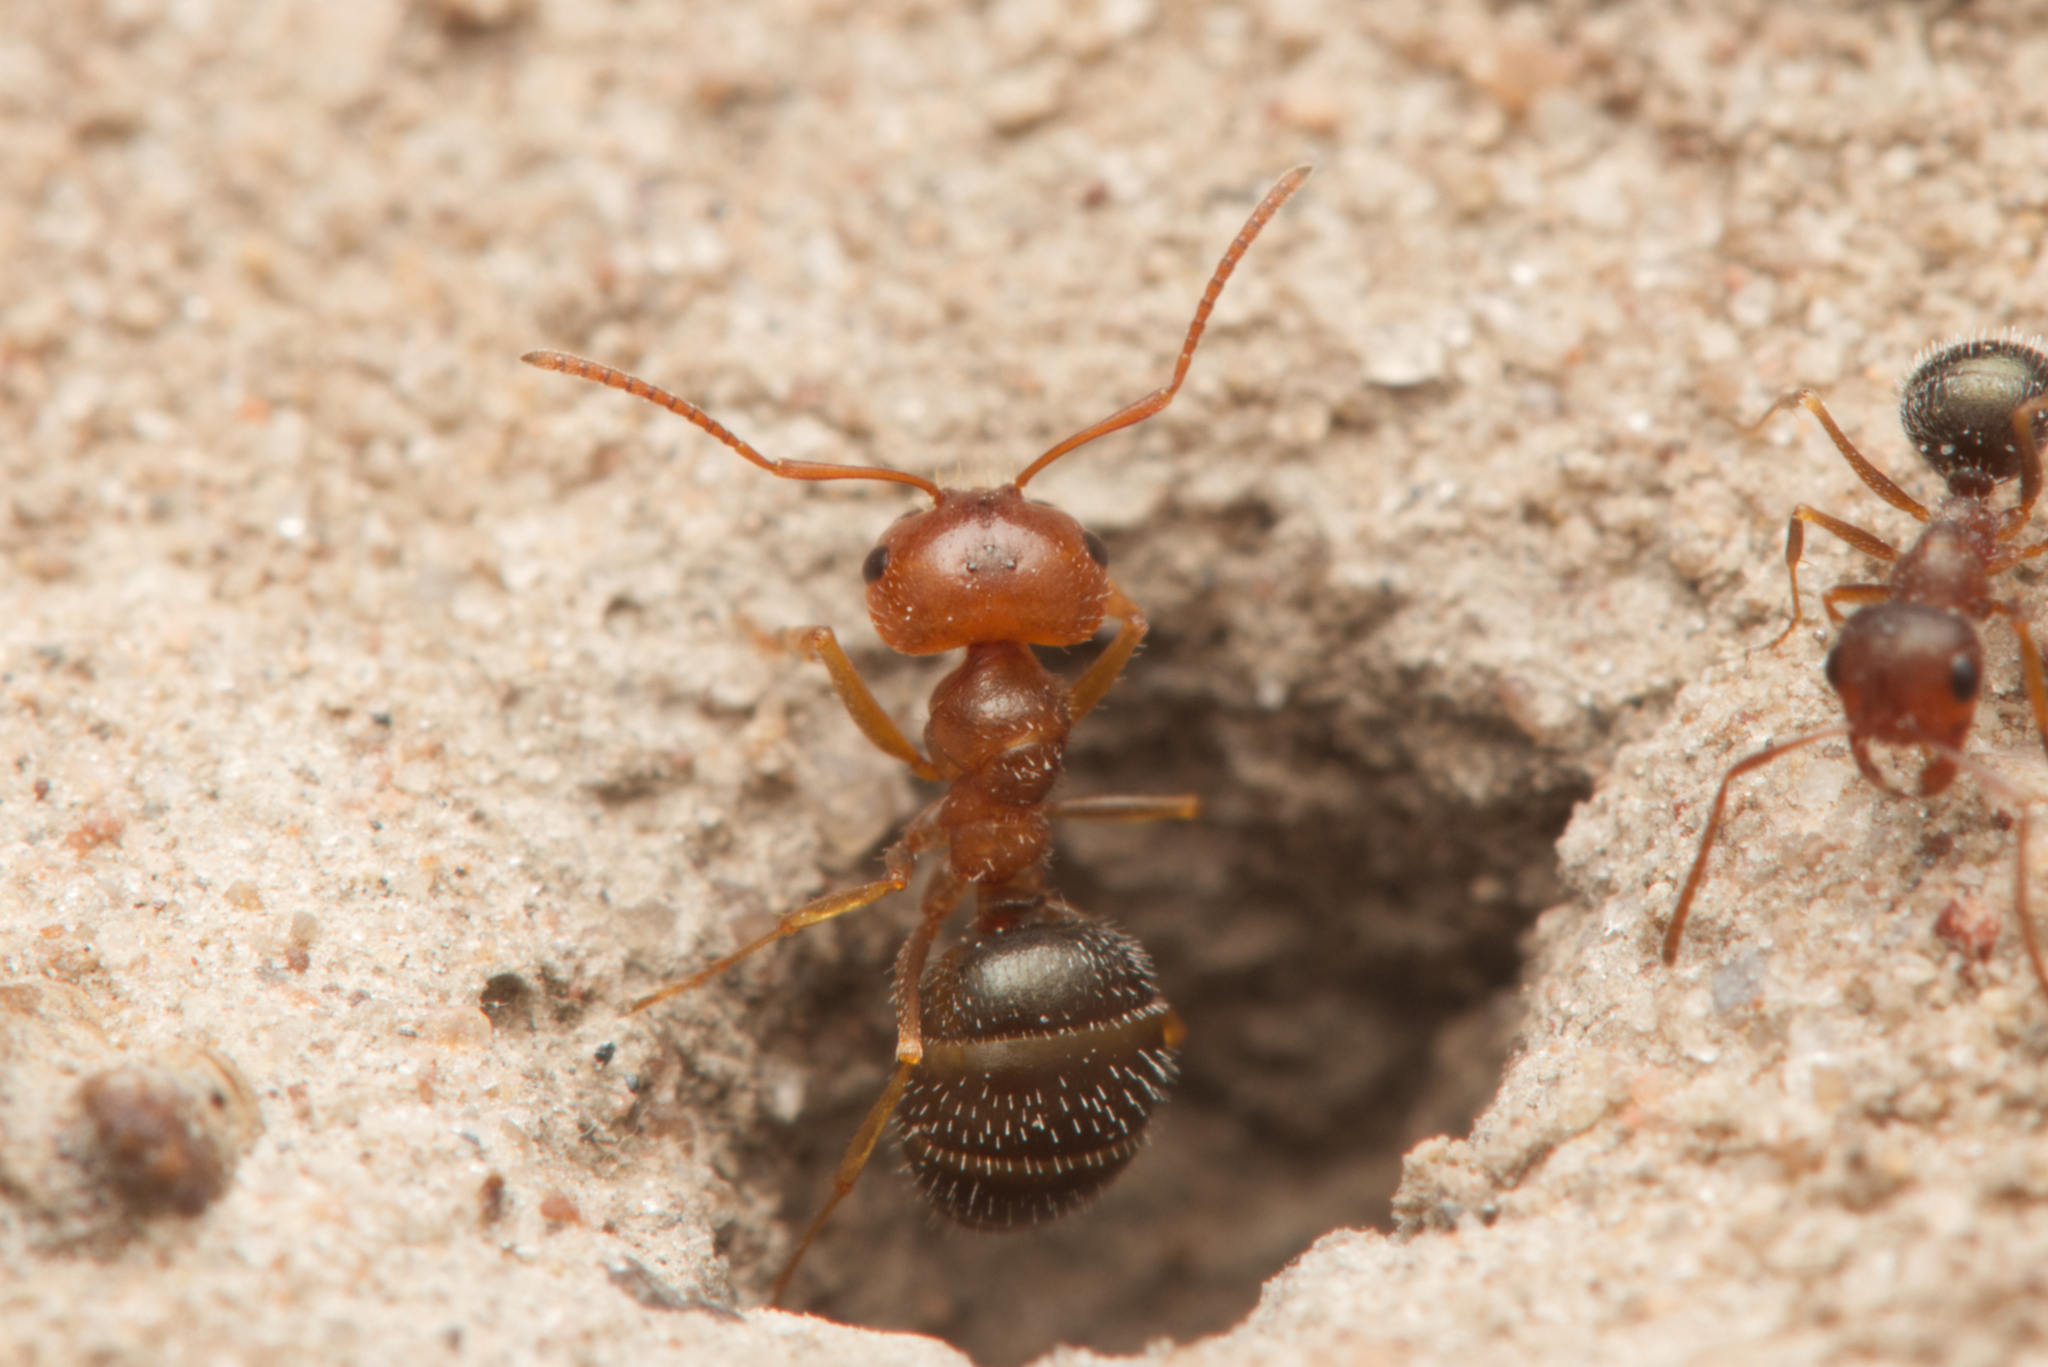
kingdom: Animalia
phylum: Arthropoda
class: Insecta
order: Hymenoptera
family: Formicidae
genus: Melophorus
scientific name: Melophorus bruneus
